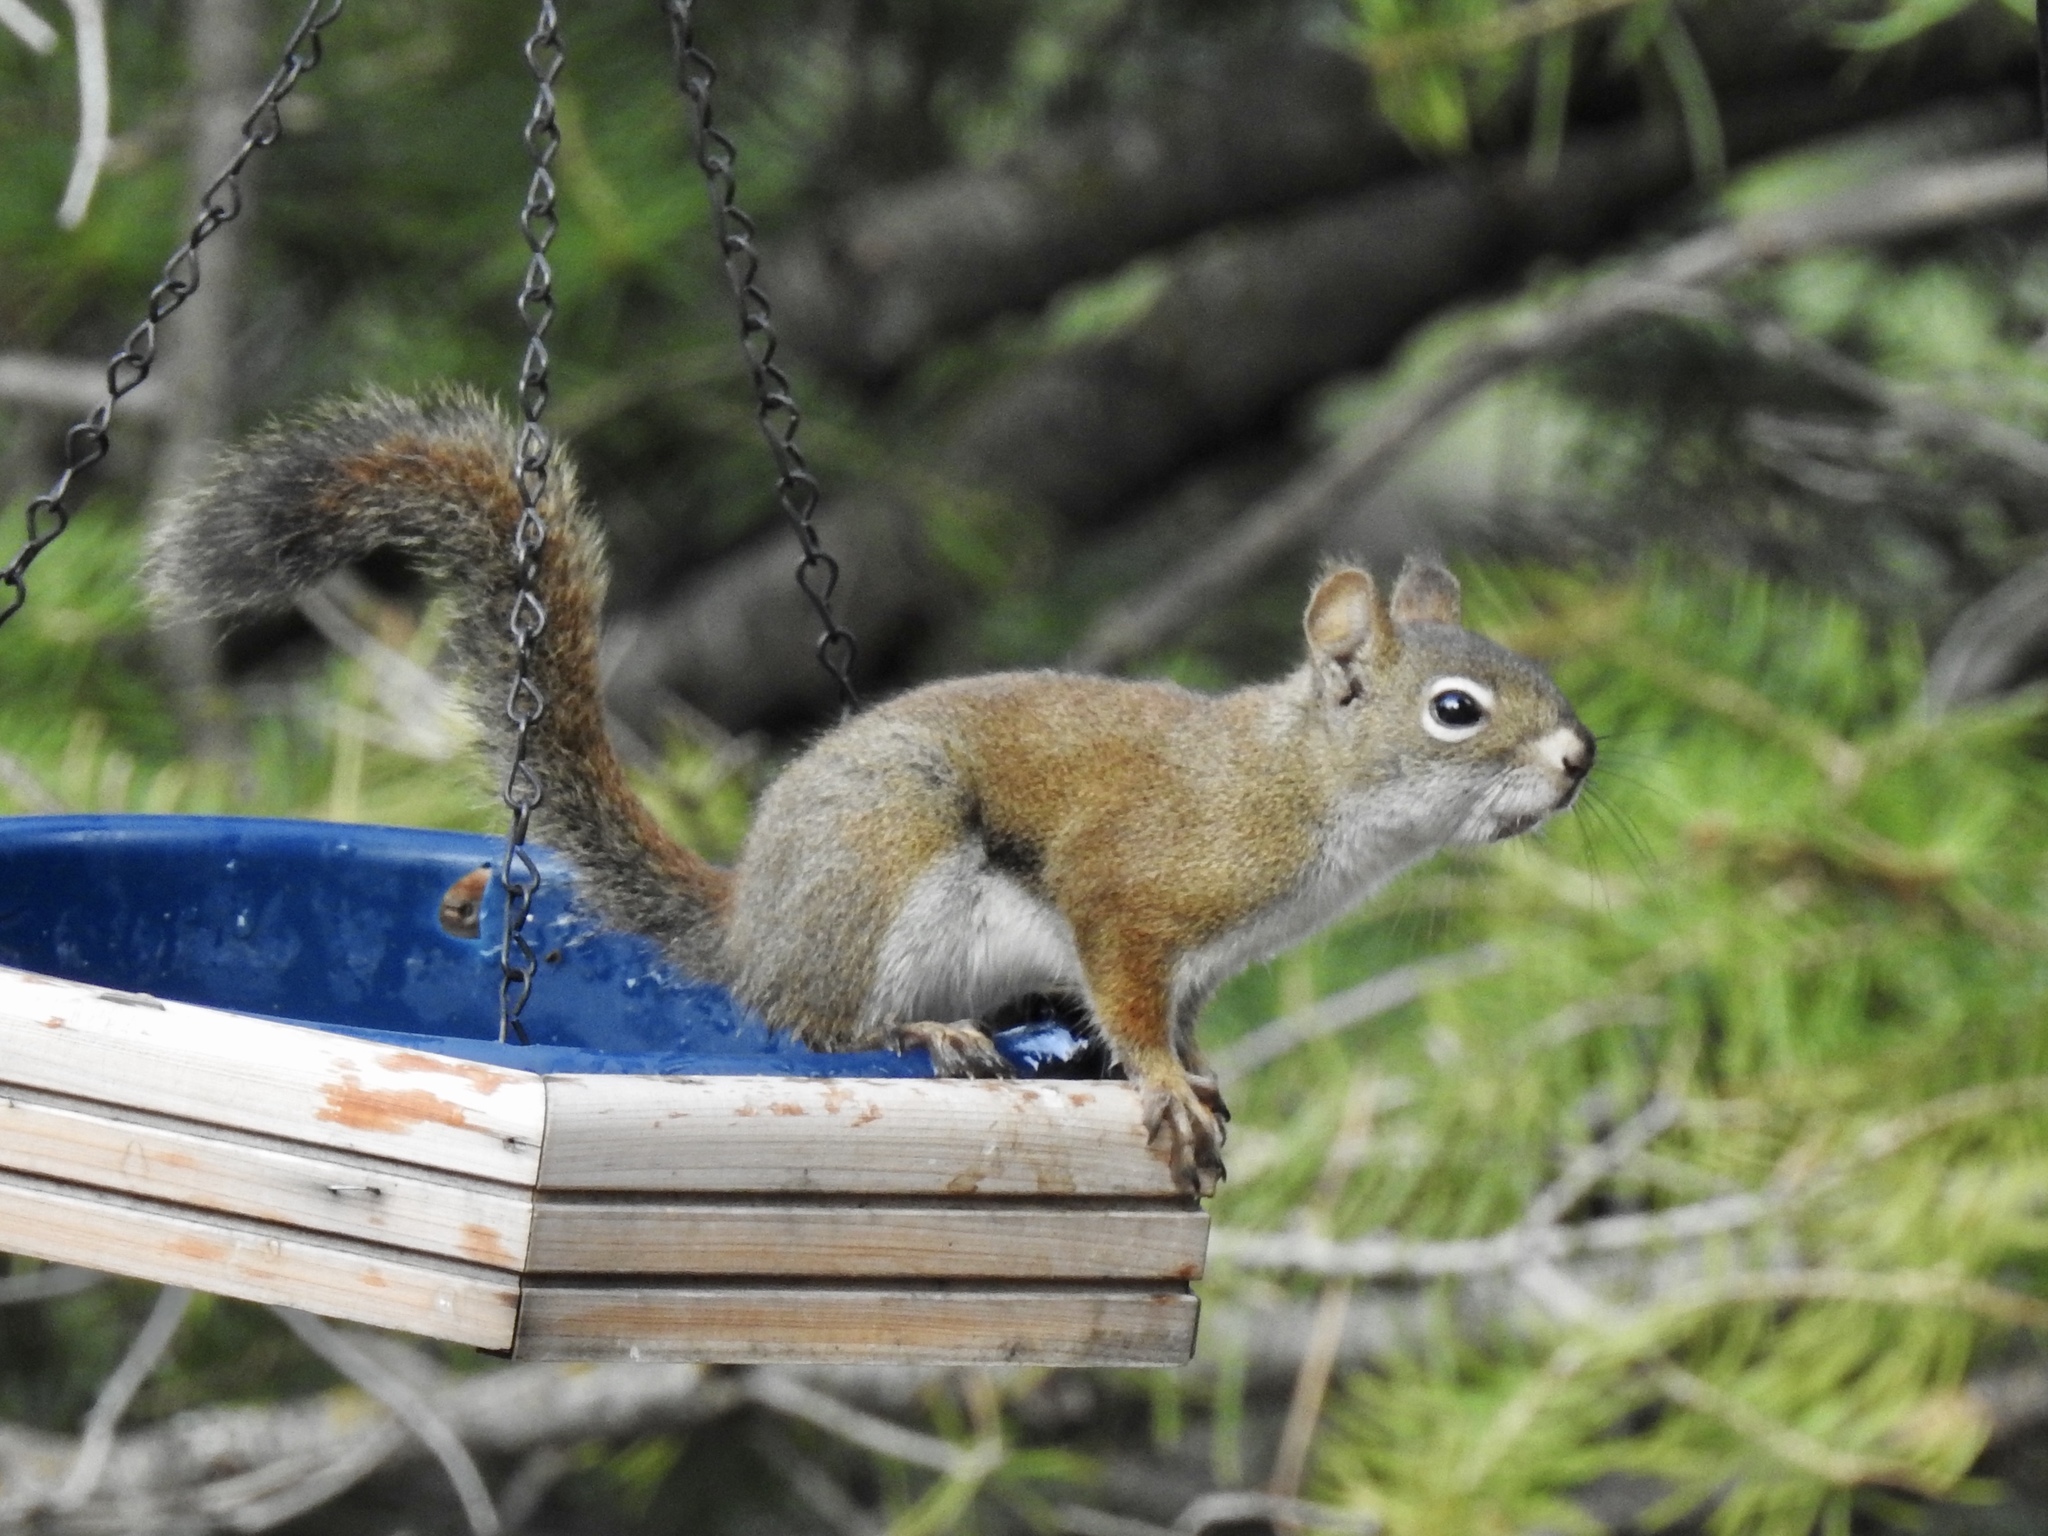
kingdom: Animalia
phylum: Chordata
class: Mammalia
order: Rodentia
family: Sciuridae
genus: Tamiasciurus
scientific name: Tamiasciurus hudsonicus
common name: Red squirrel
